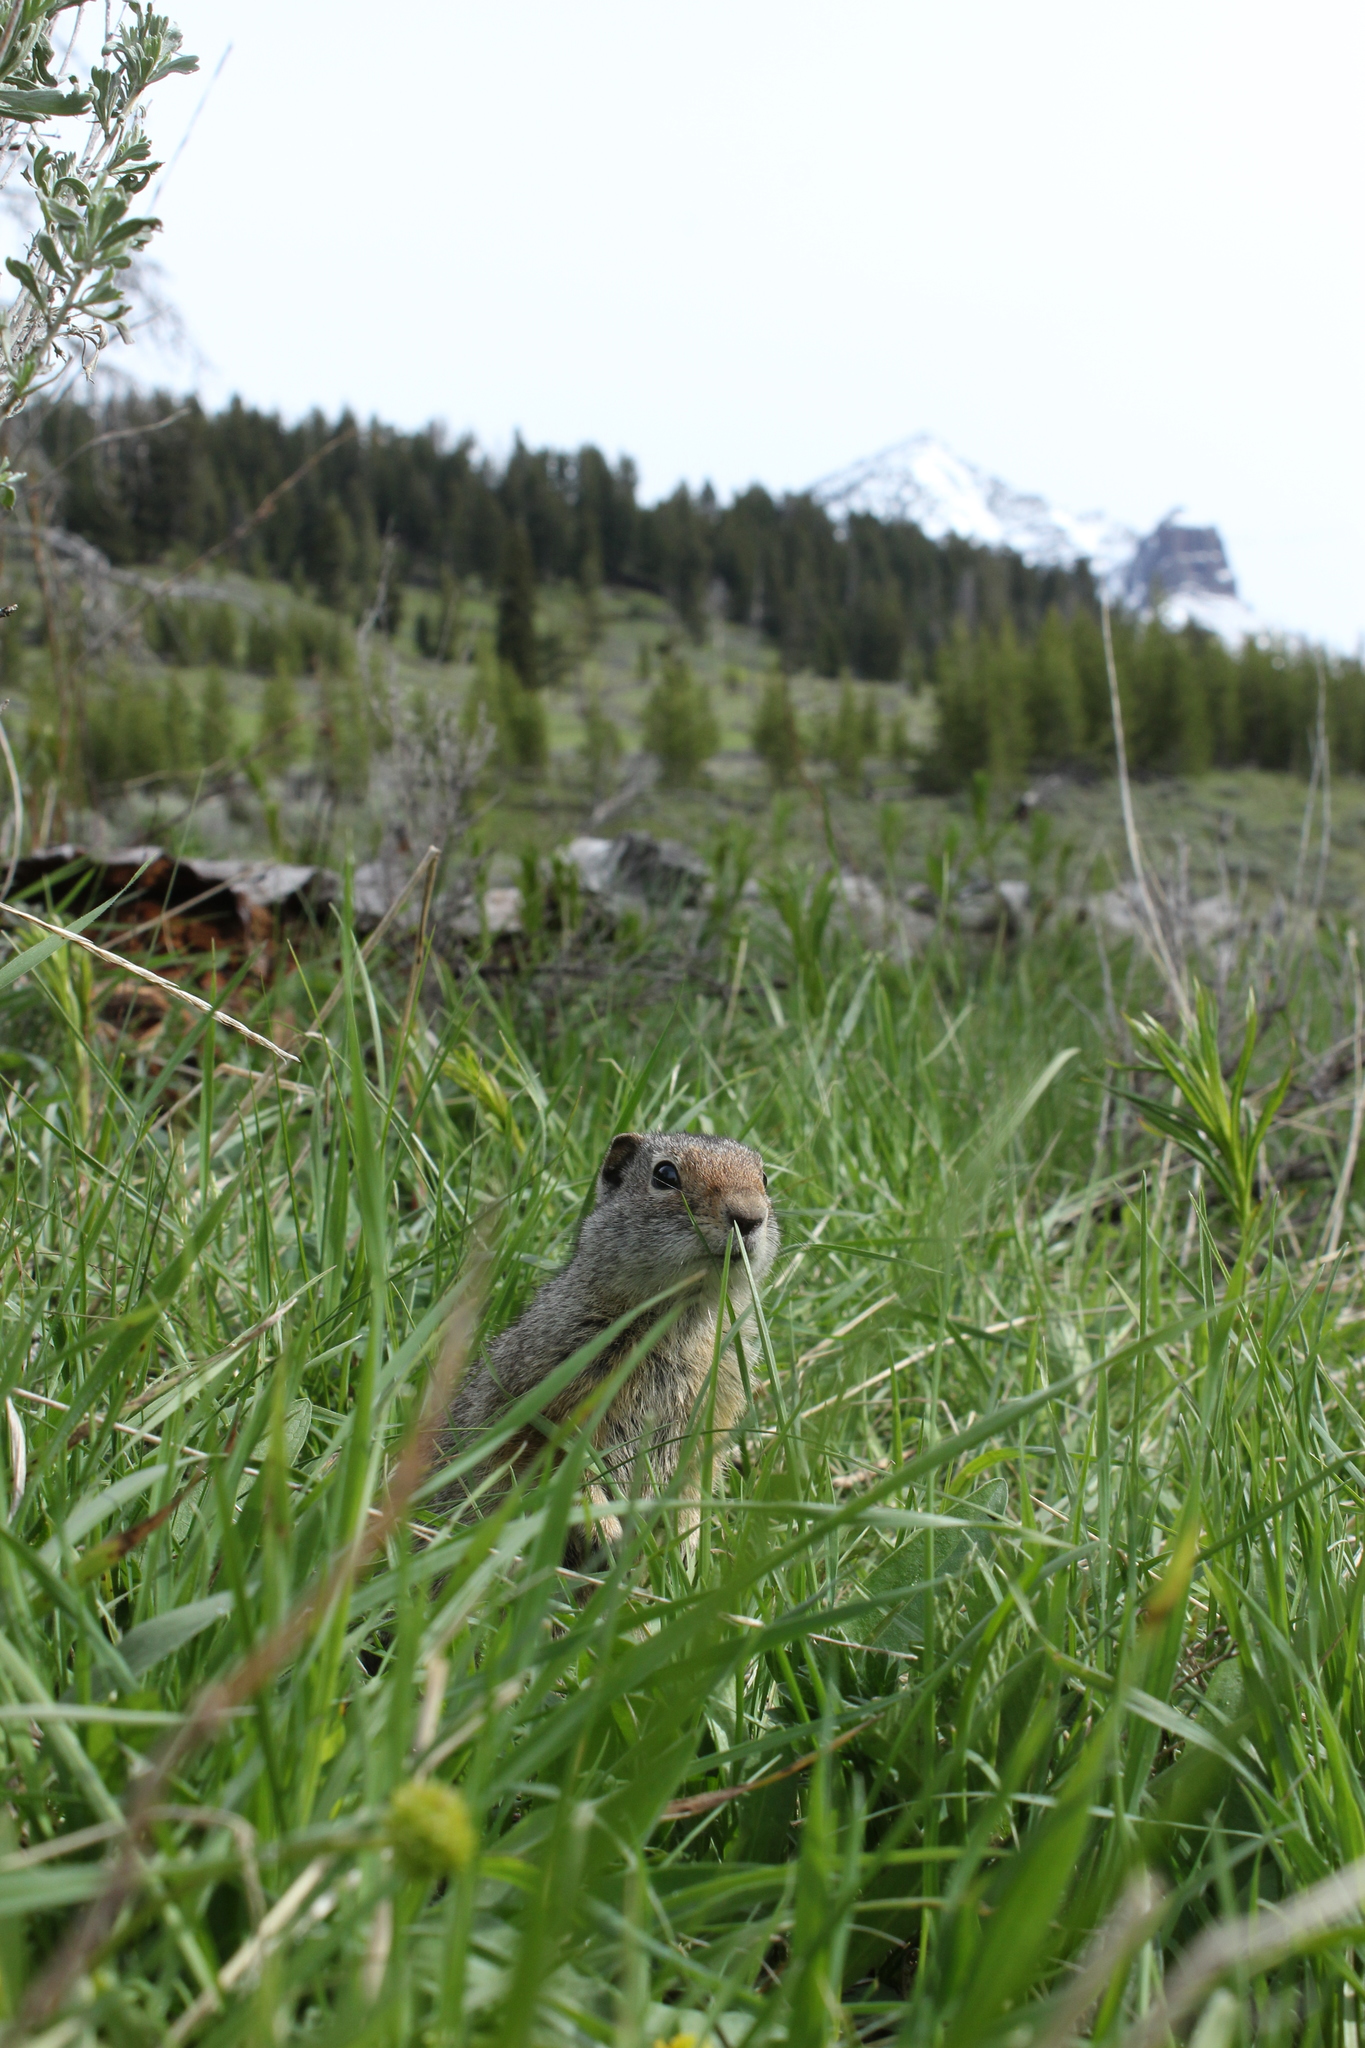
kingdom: Animalia
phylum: Chordata
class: Mammalia
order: Rodentia
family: Sciuridae
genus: Urocitellus
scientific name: Urocitellus armatus
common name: Uinta ground squirrel
